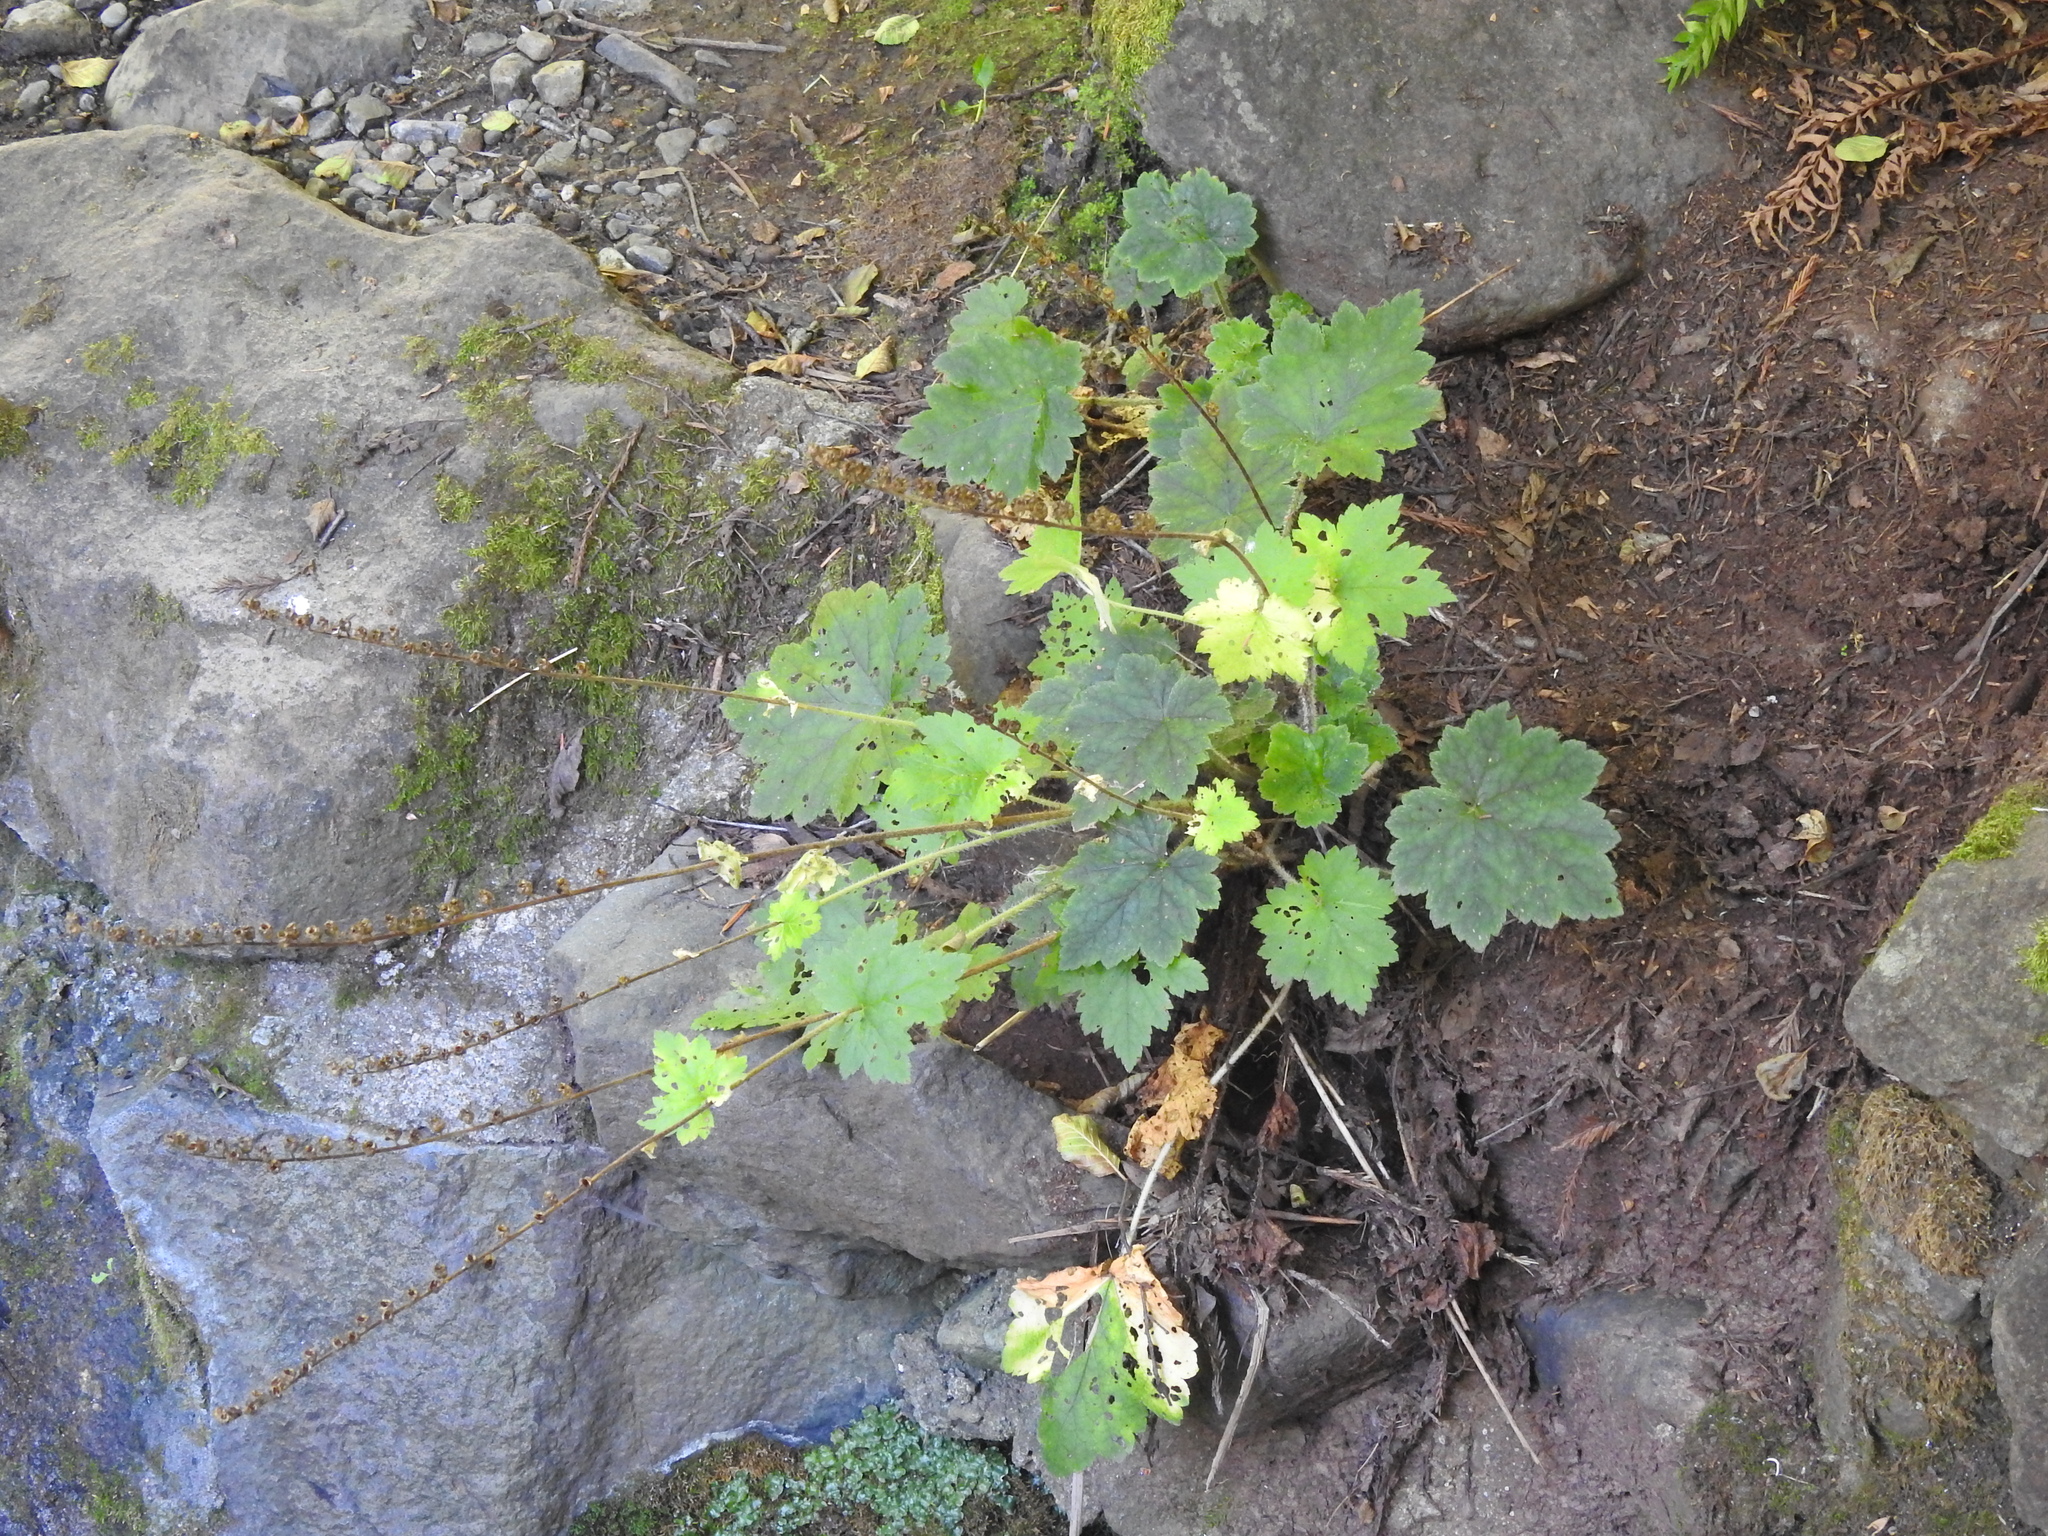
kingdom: Plantae
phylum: Tracheophyta
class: Magnoliopsida
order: Saxifragales
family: Saxifragaceae
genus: Tellima
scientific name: Tellima grandiflora
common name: Fringecups
